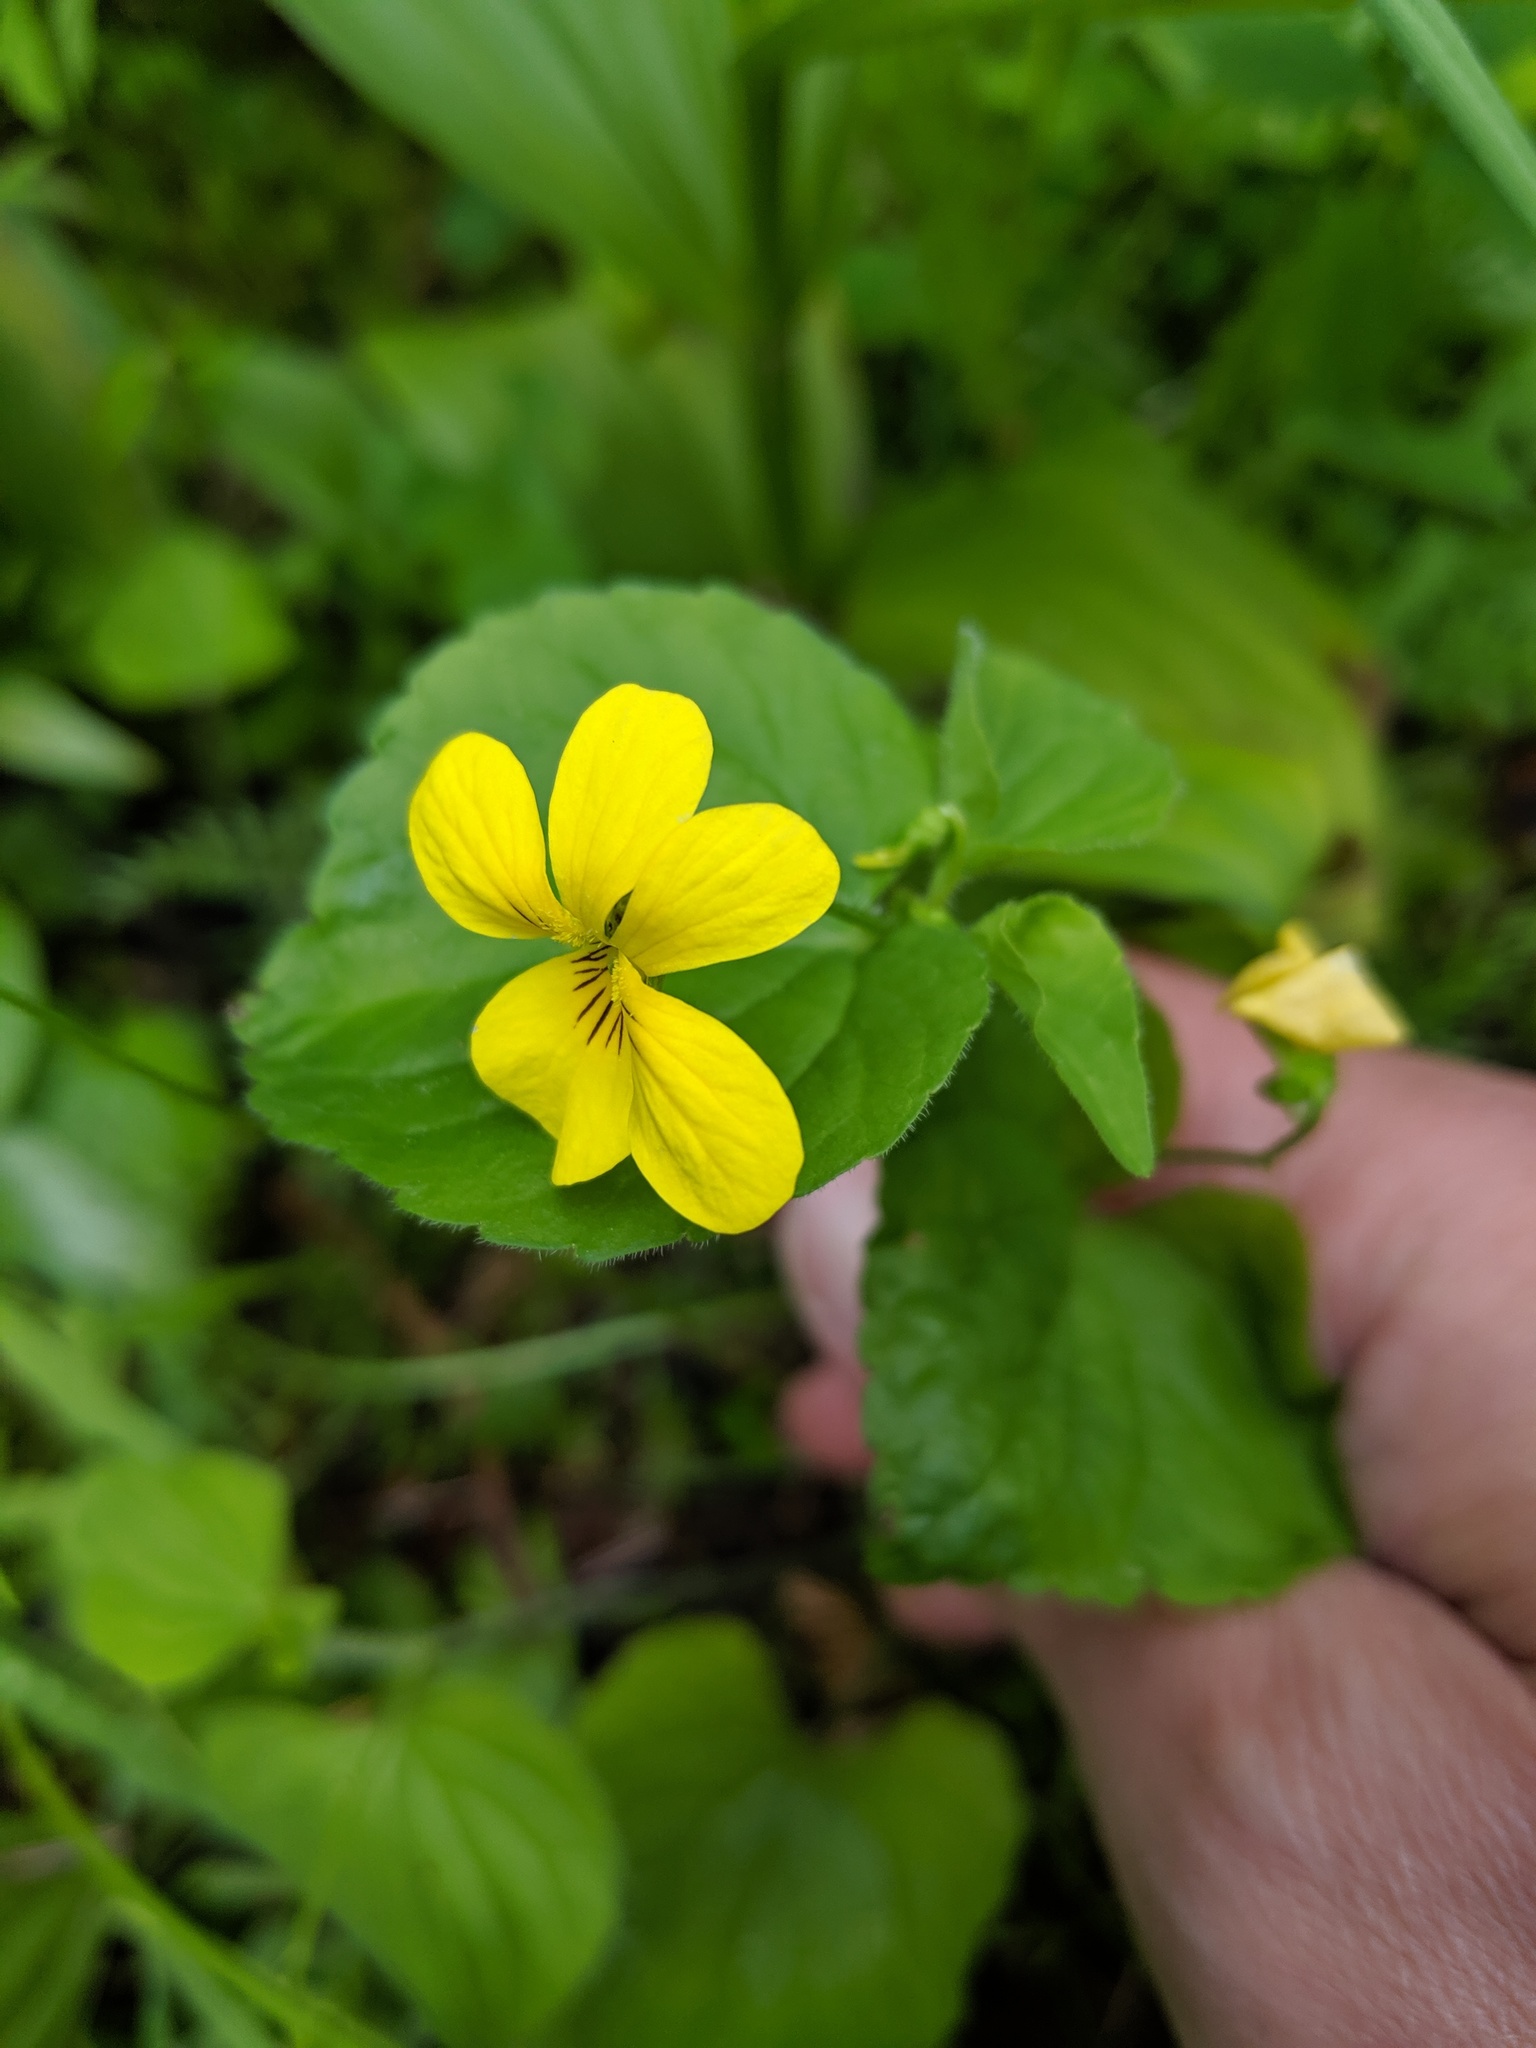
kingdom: Plantae
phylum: Tracheophyta
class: Magnoliopsida
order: Malpighiales
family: Violaceae
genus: Viola
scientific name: Viola glabella
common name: Stream violet
